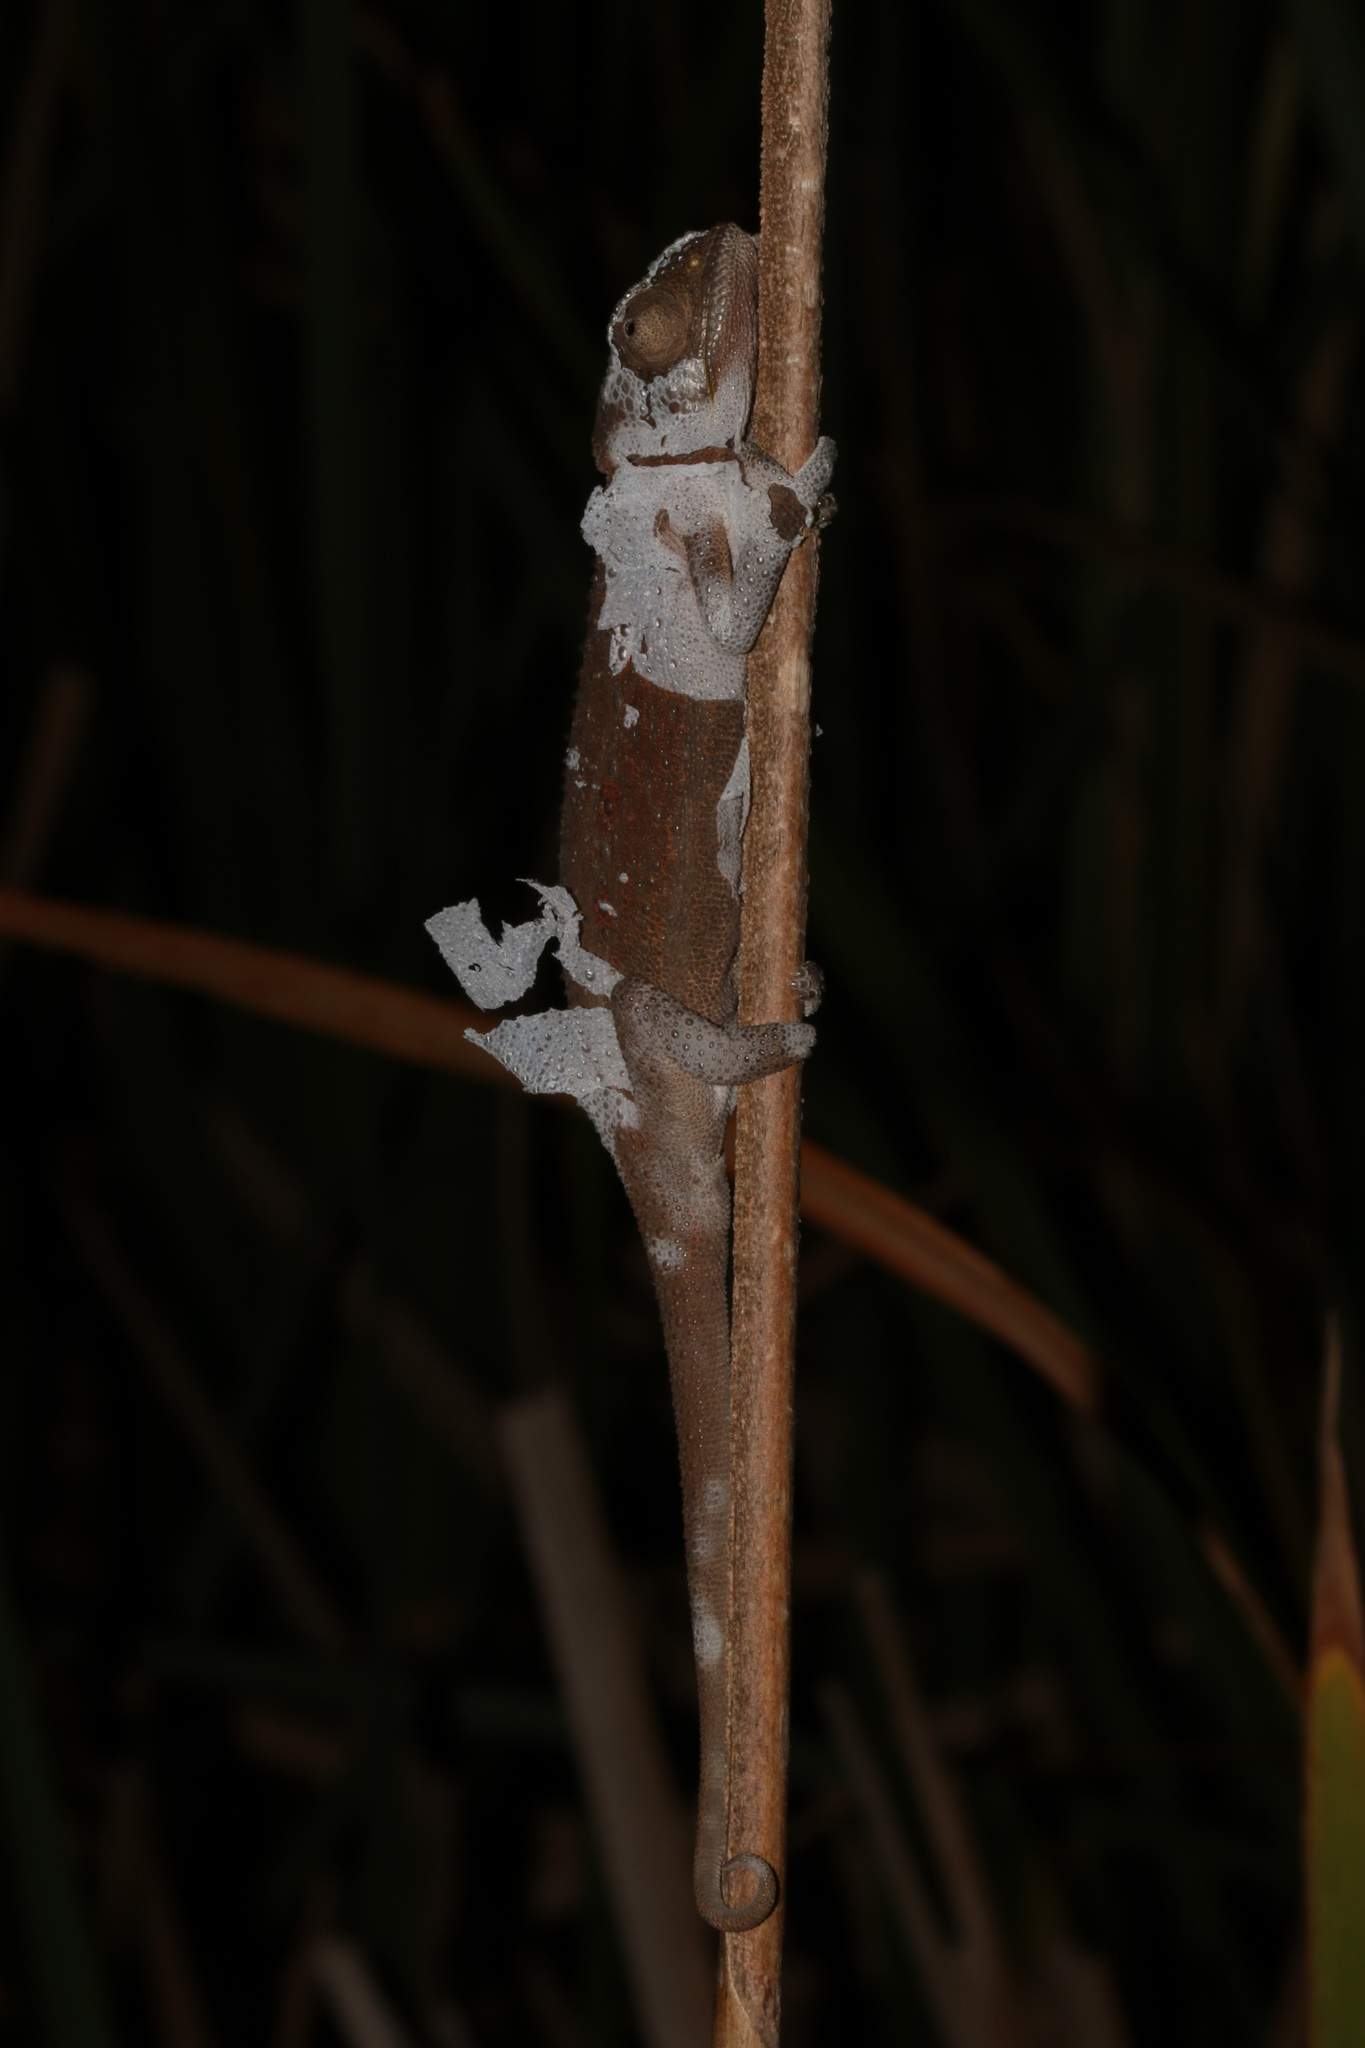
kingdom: Animalia
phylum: Chordata
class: Squamata
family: Chamaeleonidae
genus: Bradypodion
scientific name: Bradypodion pumilum
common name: Cape dwarf chameleon
